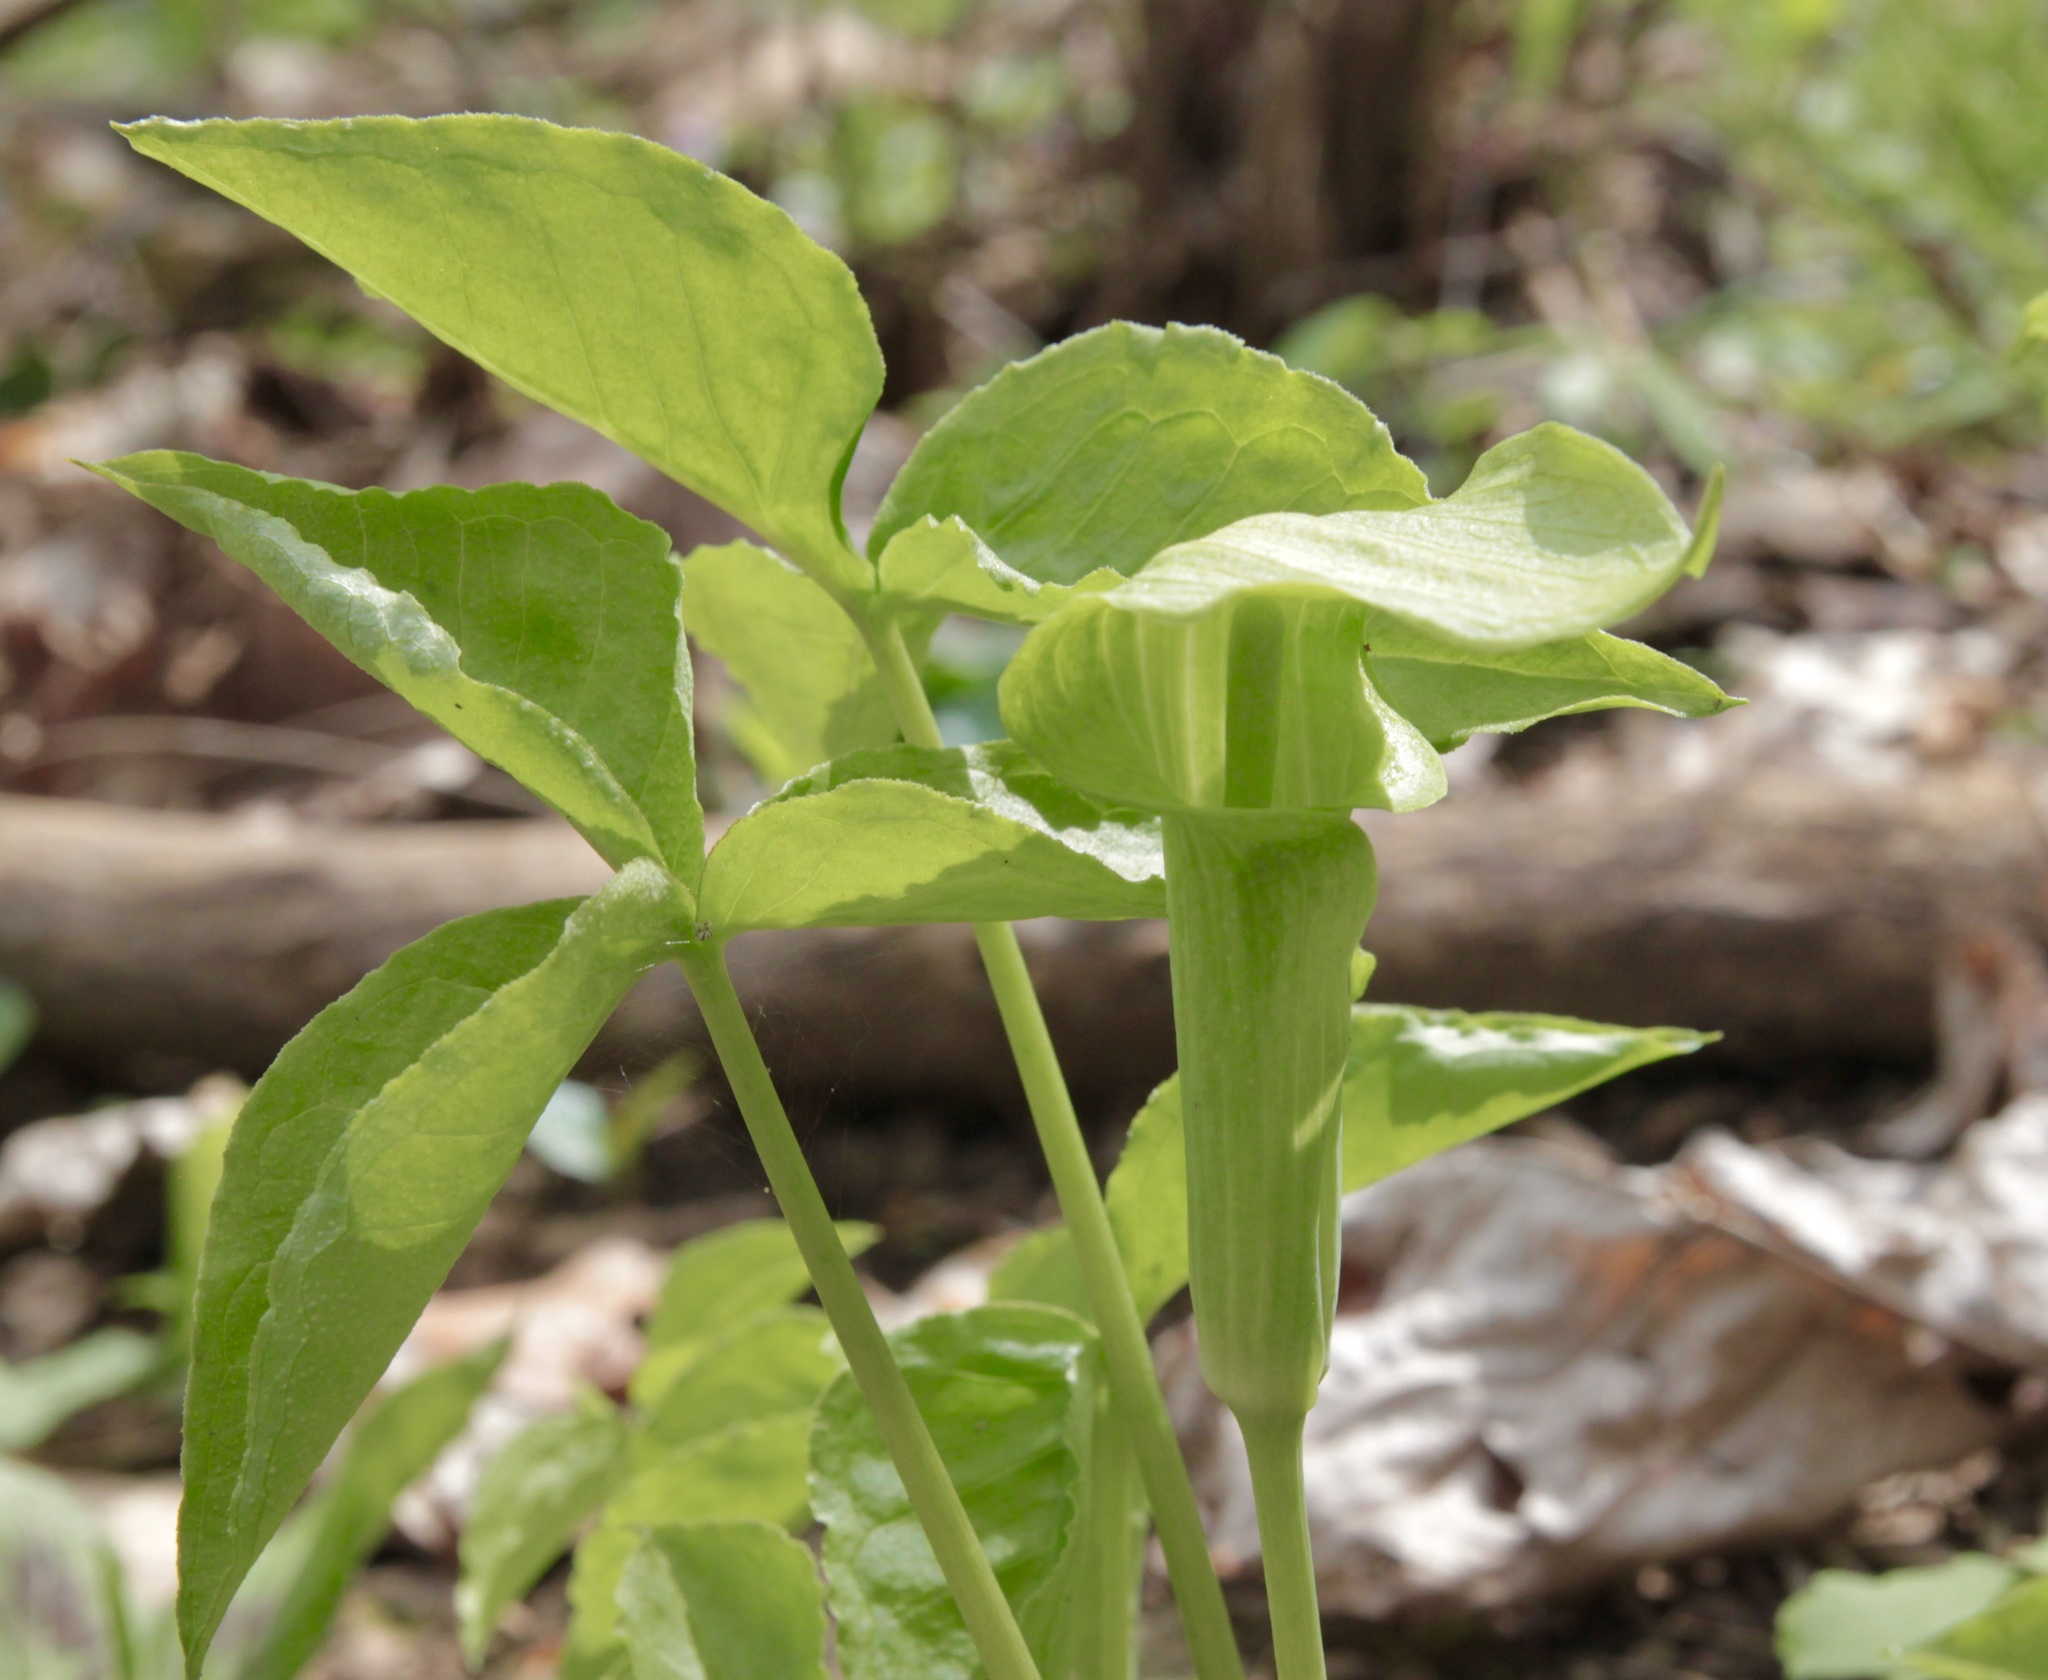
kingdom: Plantae
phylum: Tracheophyta
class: Liliopsida
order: Alismatales
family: Araceae
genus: Arisaema
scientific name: Arisaema triphyllum
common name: Jack-in-the-pulpit
